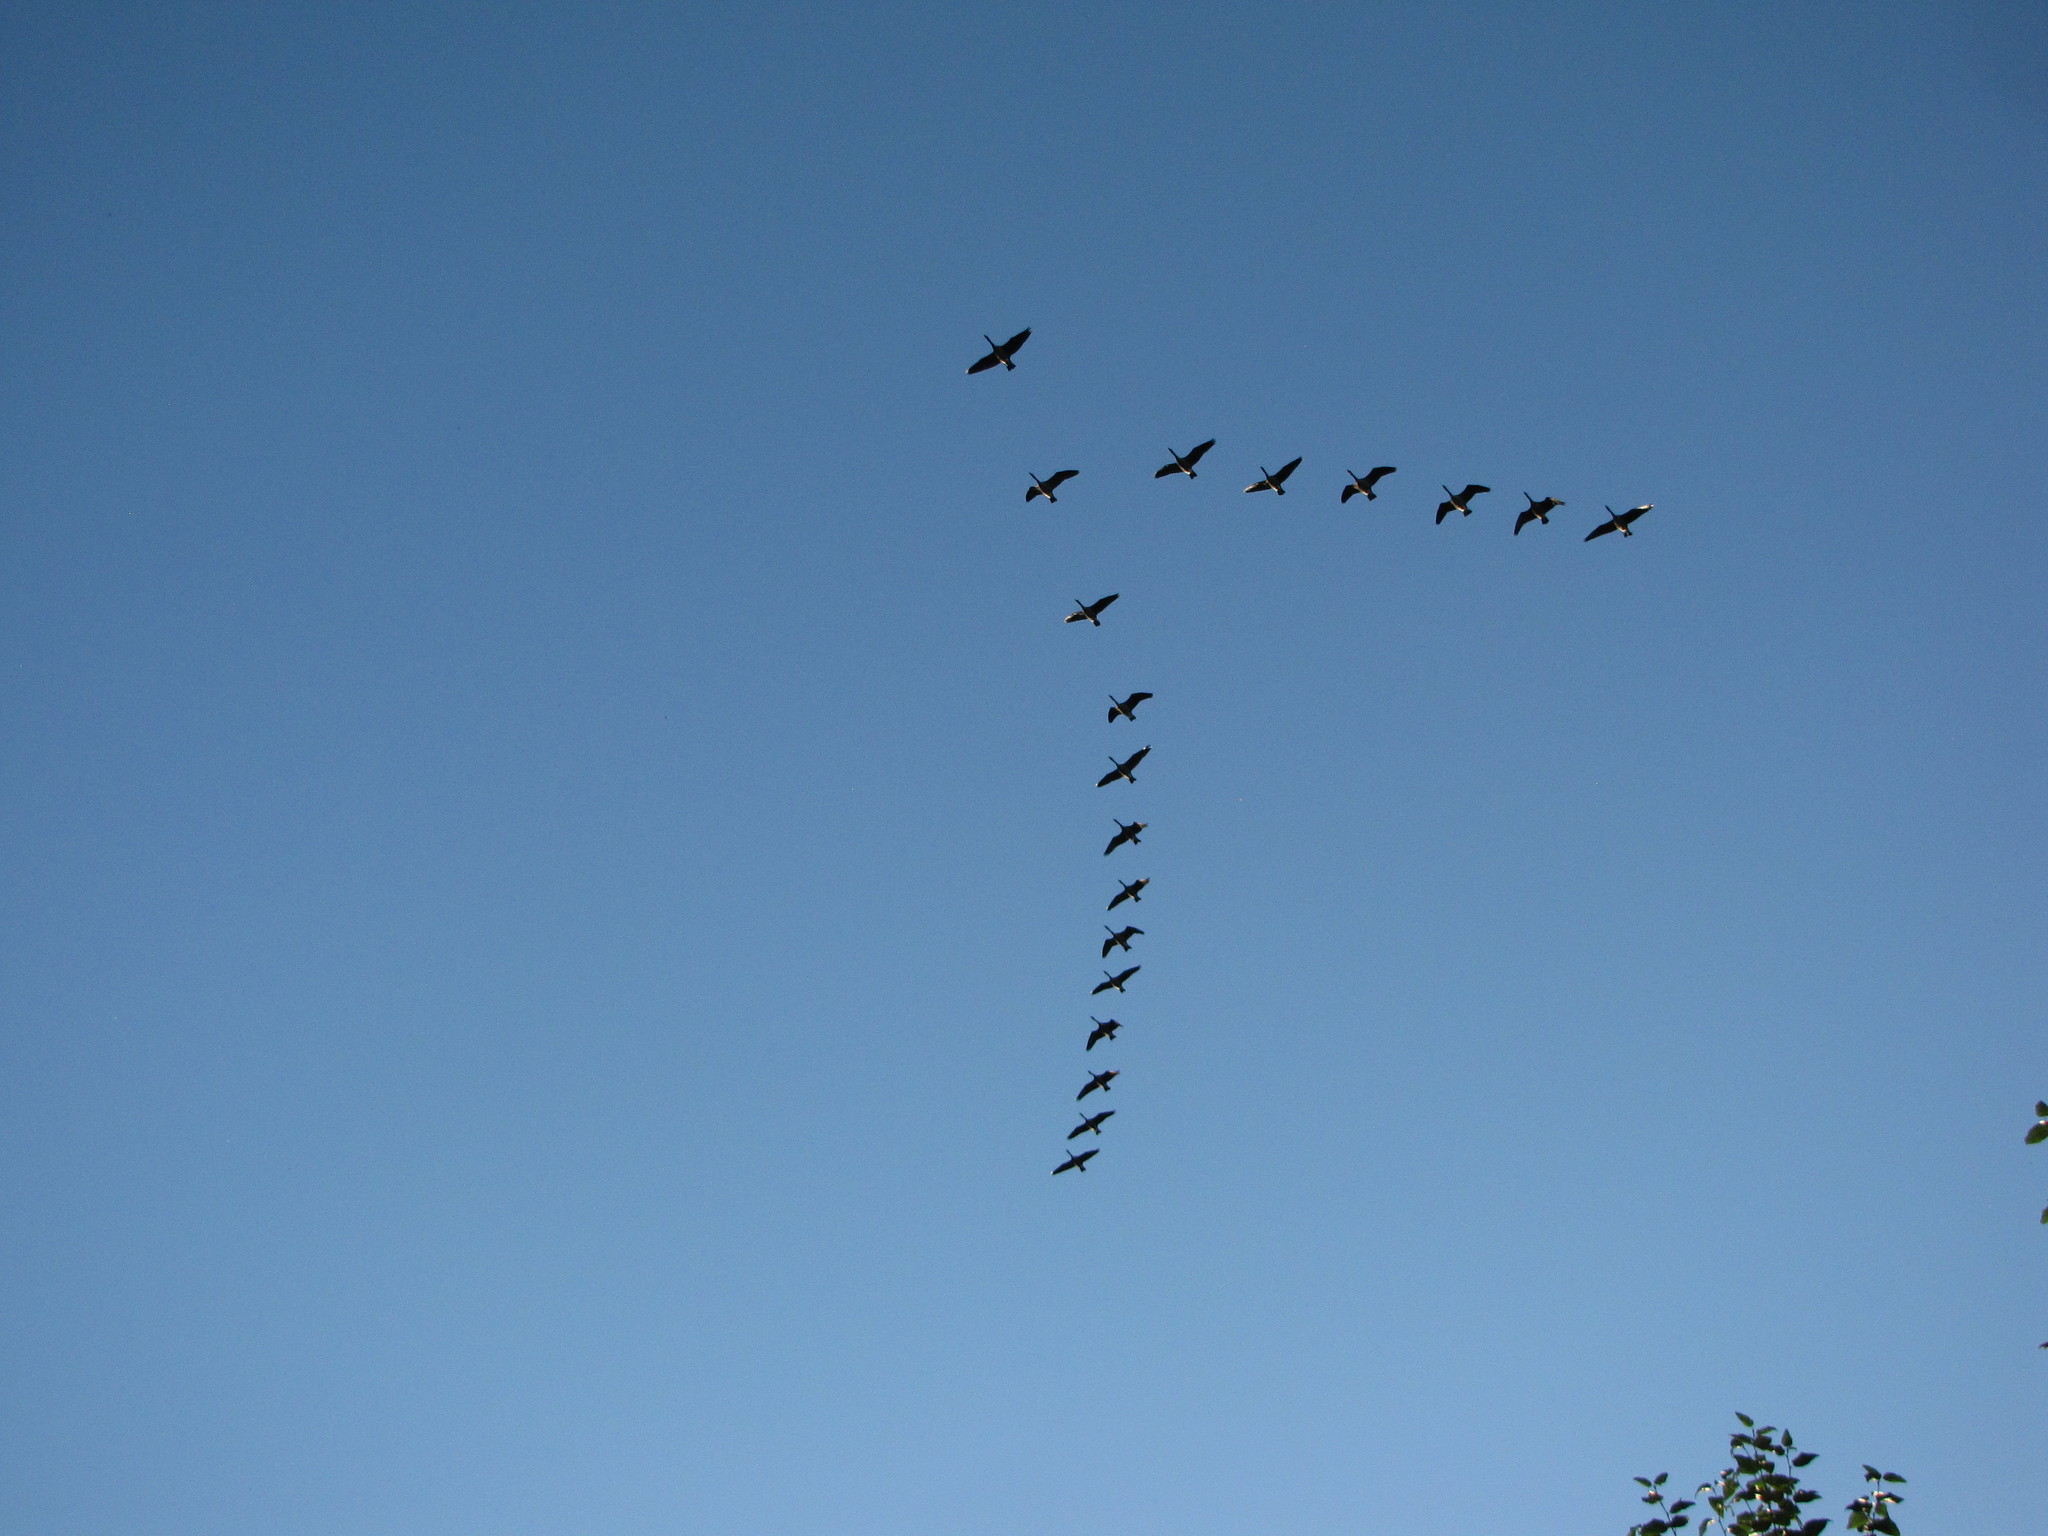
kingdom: Animalia
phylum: Chordata
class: Aves
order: Anseriformes
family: Anatidae
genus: Branta
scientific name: Branta canadensis
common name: Canada goose
